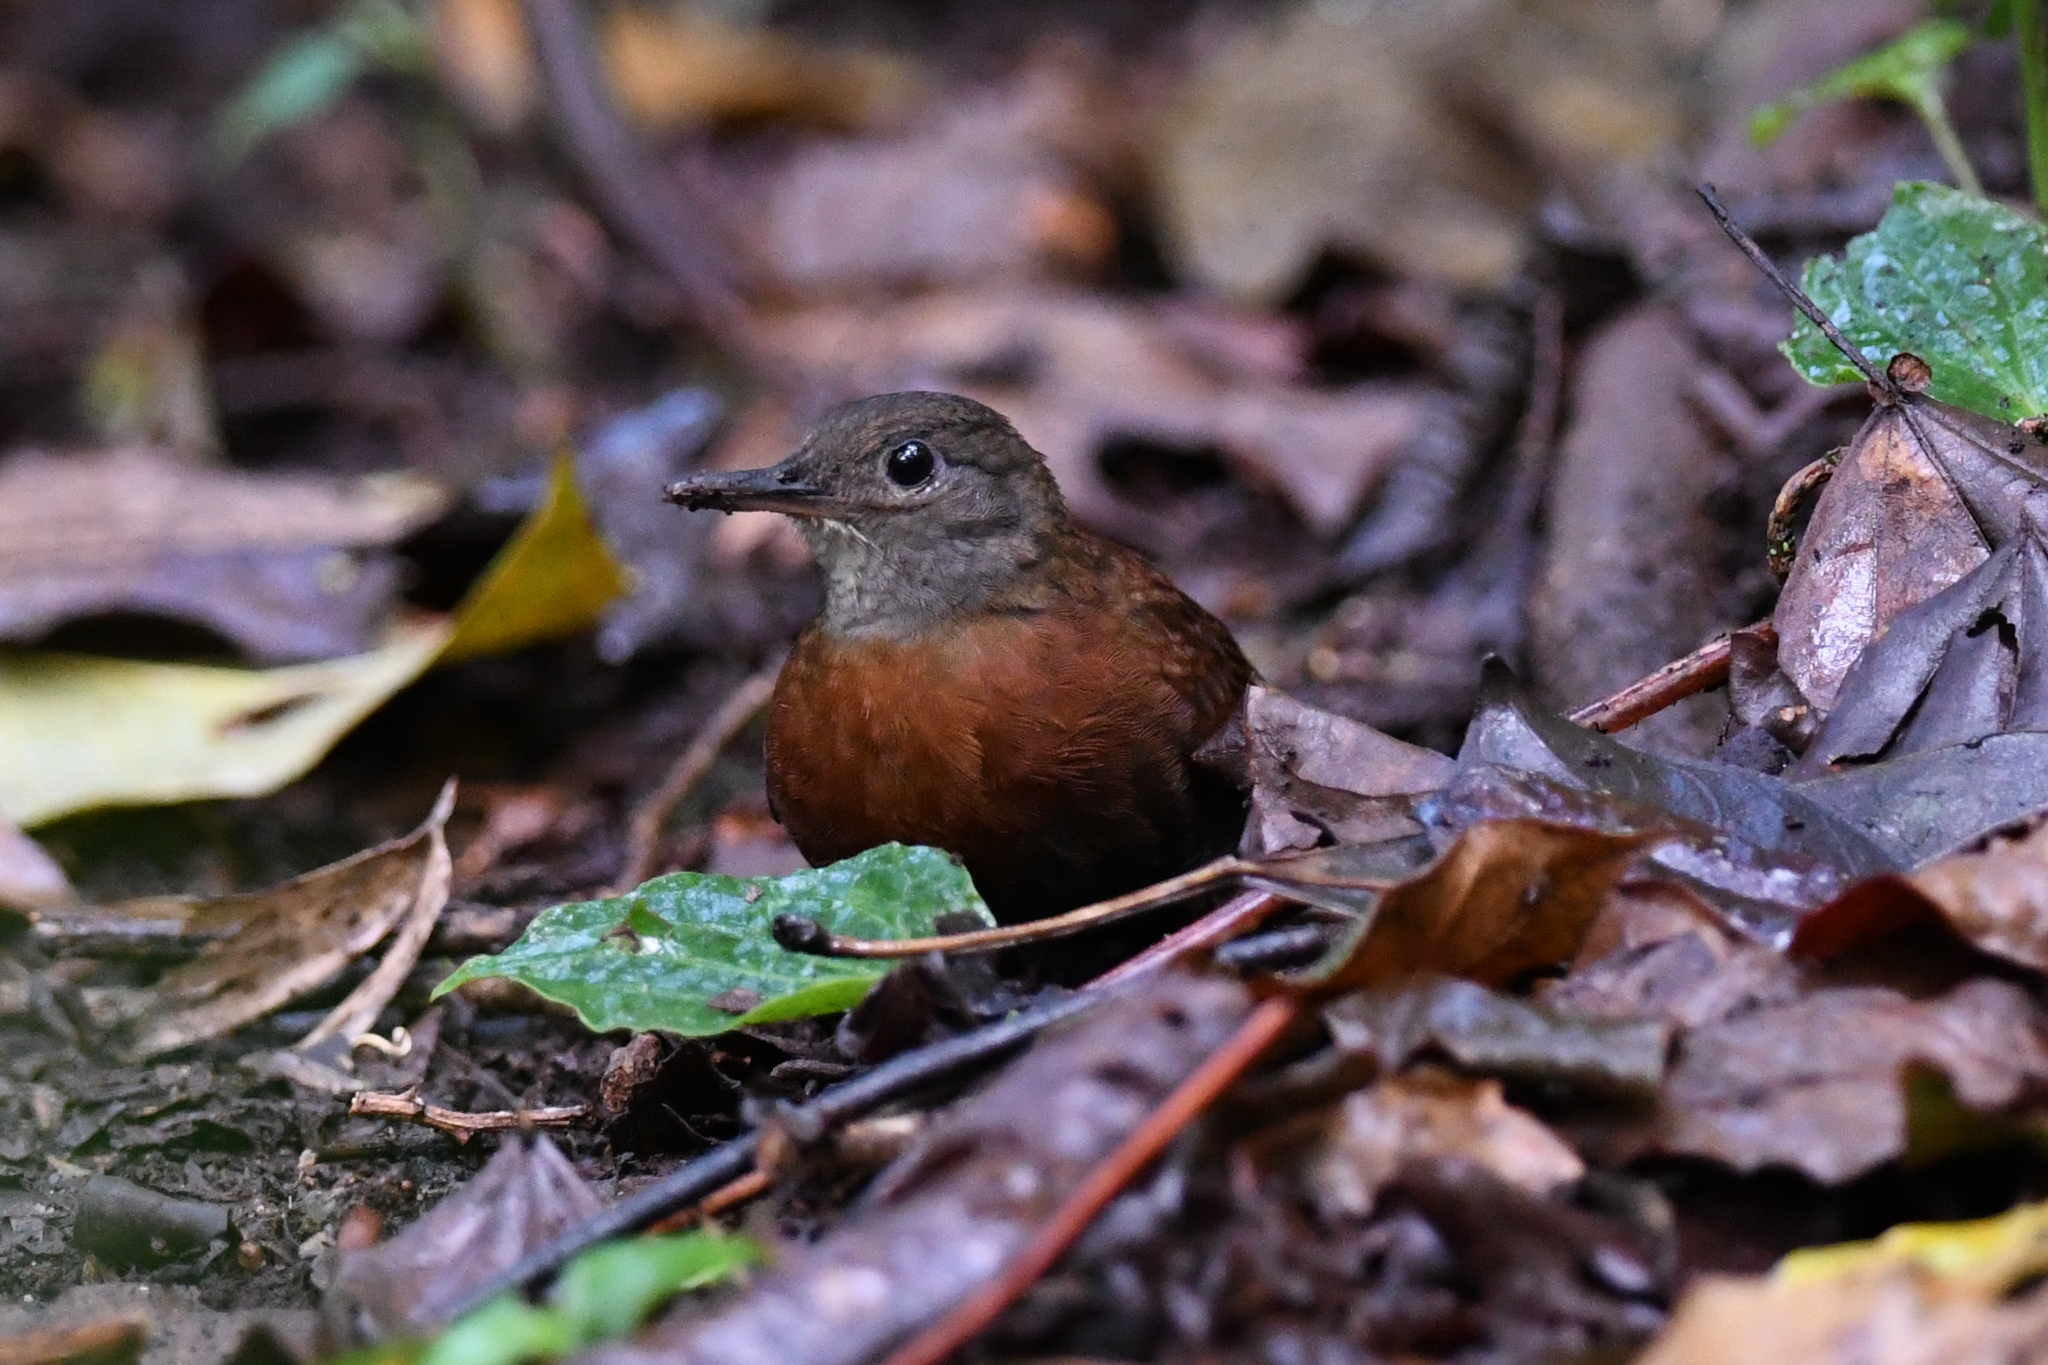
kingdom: Animalia
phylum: Chordata
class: Aves
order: Passeriformes
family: Furnariidae
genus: Sclerurus
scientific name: Sclerurus albigularis
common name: Gray-throated leaftosser
